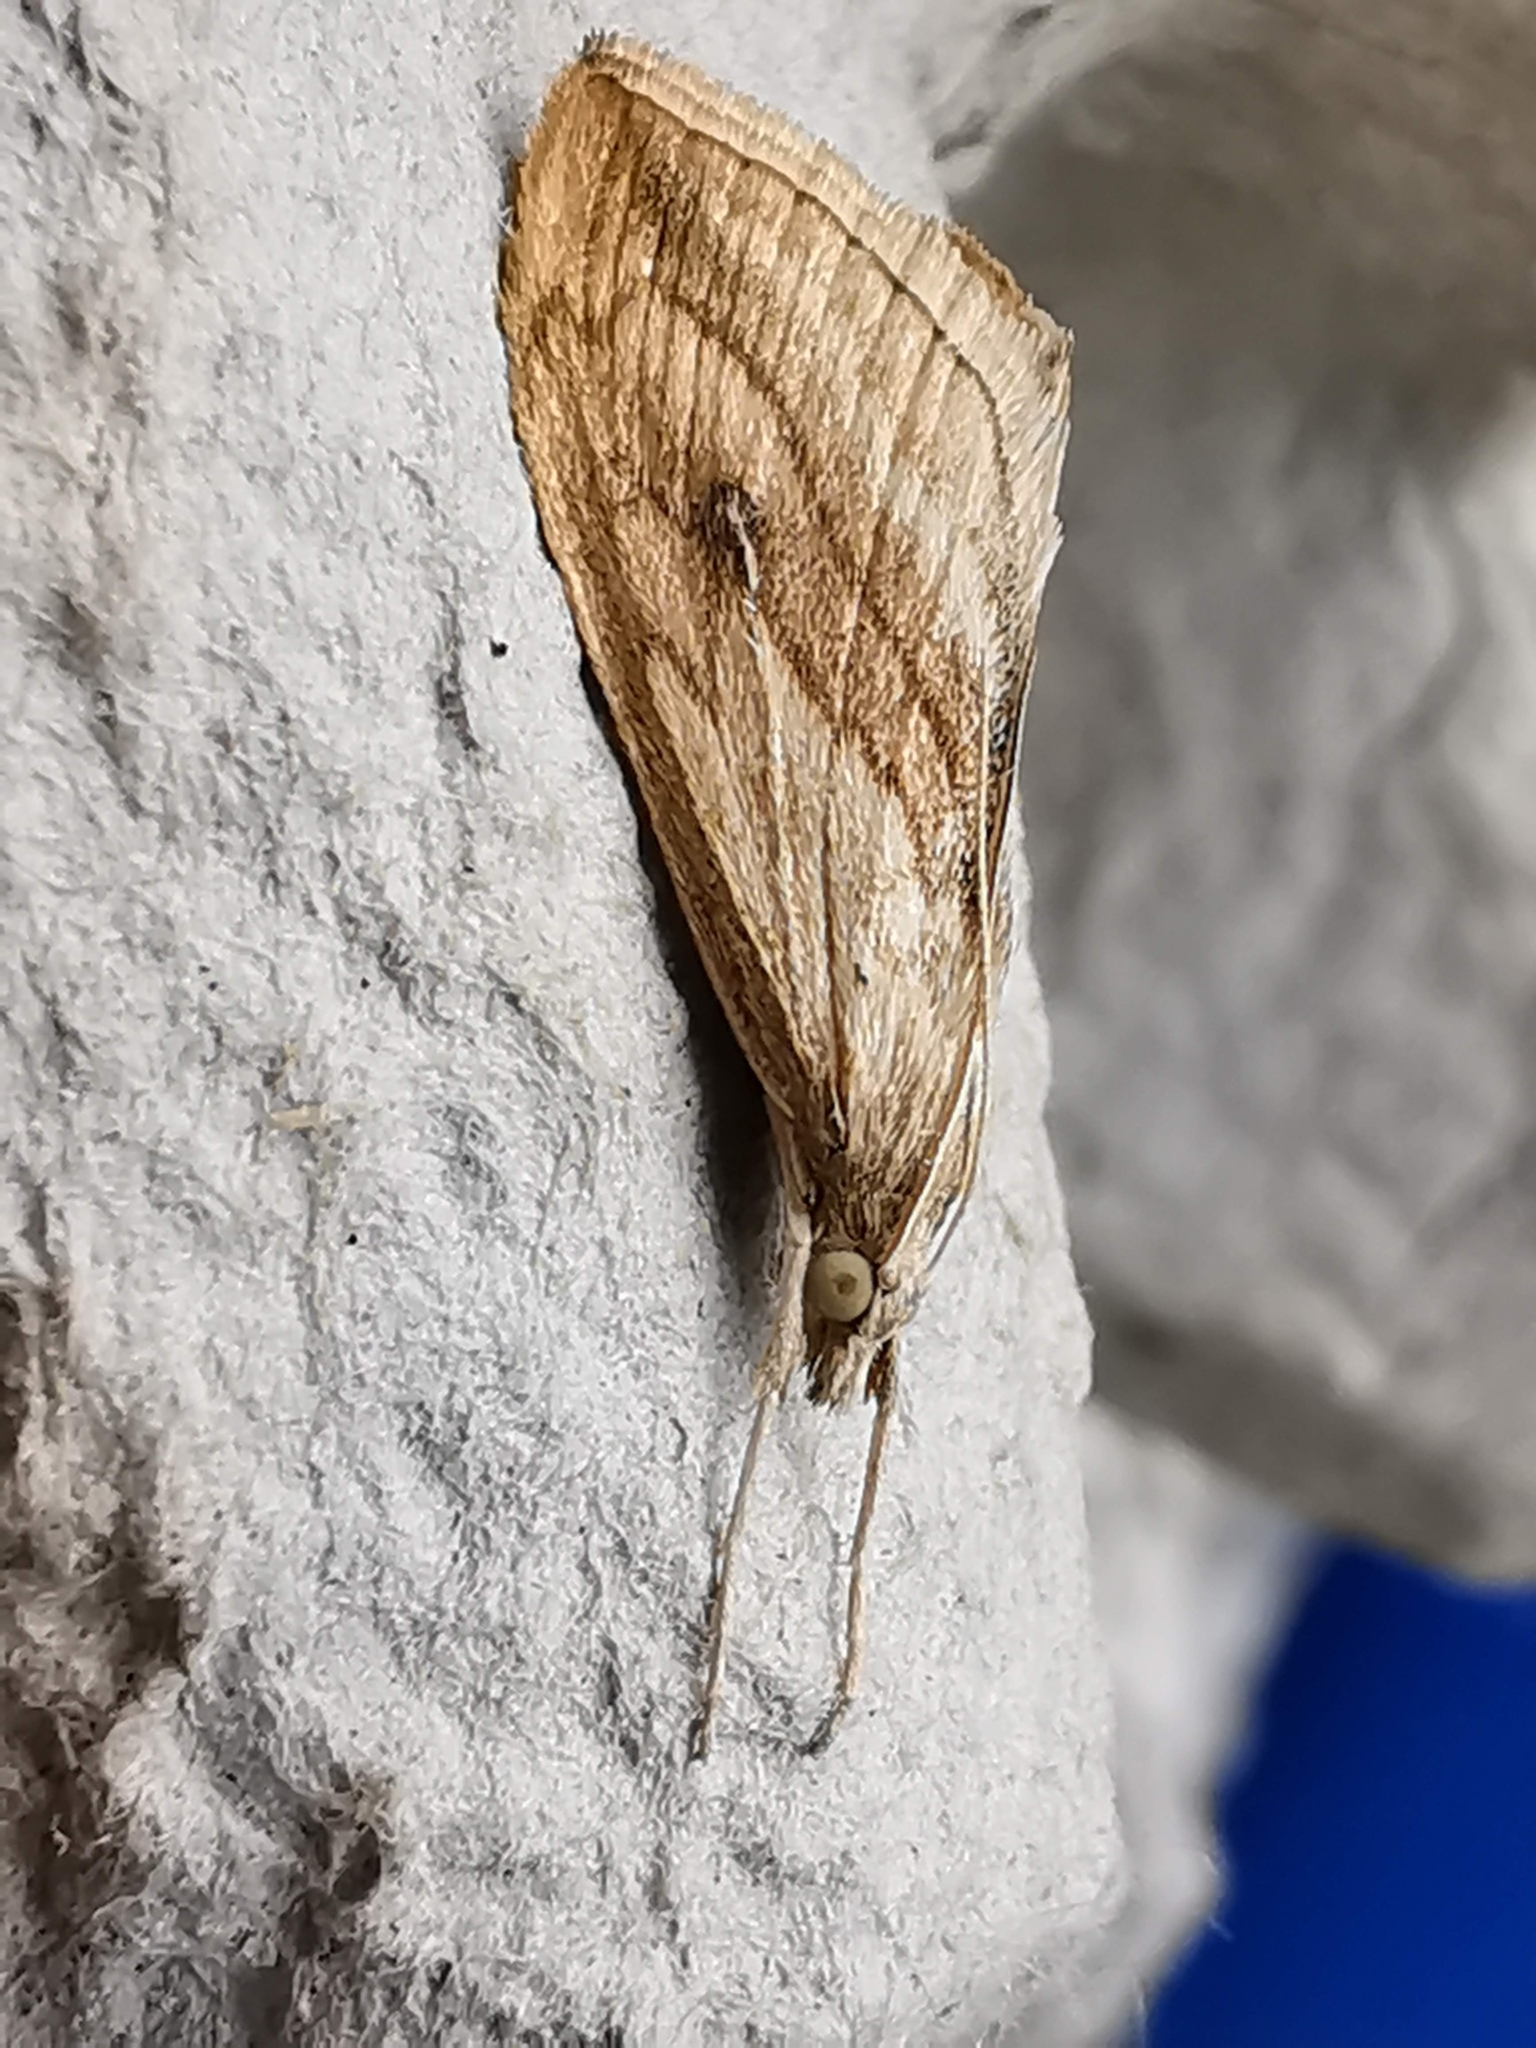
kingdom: Animalia
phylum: Arthropoda
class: Insecta
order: Lepidoptera
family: Crambidae
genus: Evergestis
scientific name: Evergestis forficalis
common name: Garden pebble
